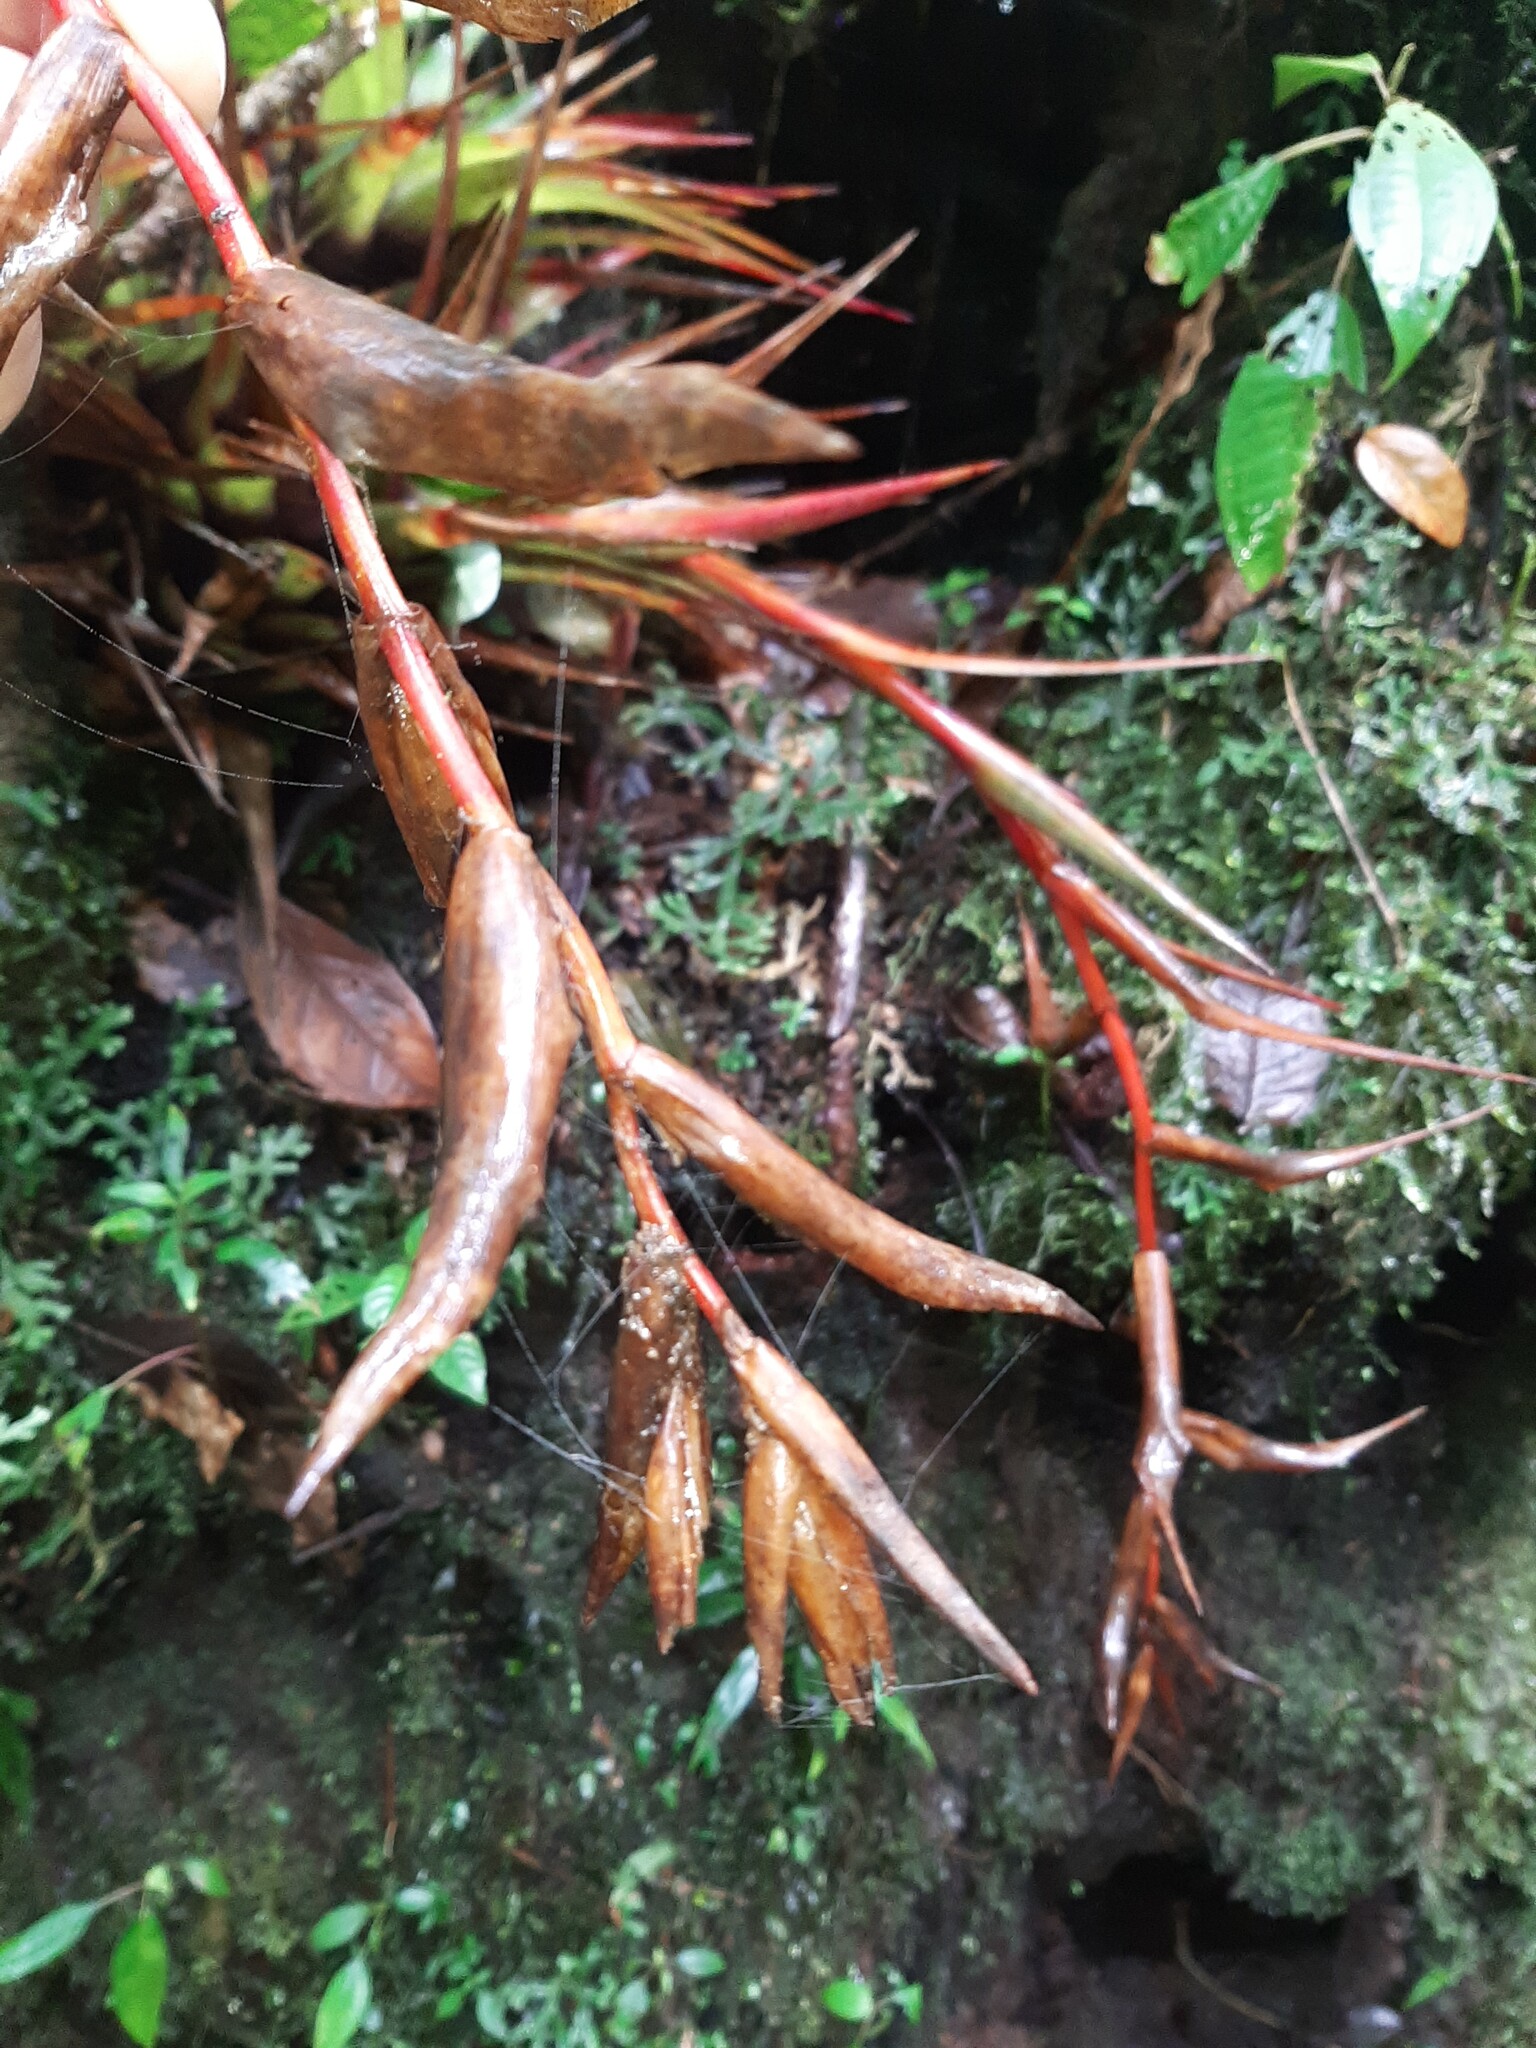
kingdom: Plantae
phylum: Tracheophyta
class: Liliopsida
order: Poales
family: Bromeliaceae
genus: Tillandsia
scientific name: Tillandsia orogenes
